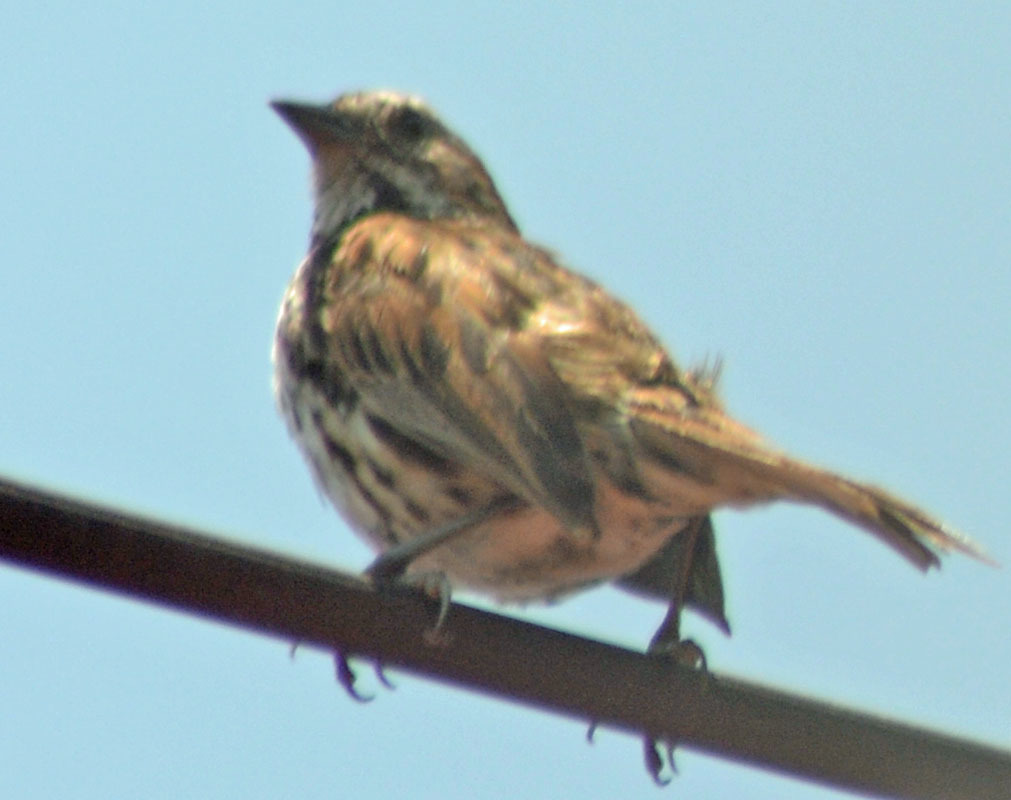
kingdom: Animalia
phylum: Chordata
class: Aves
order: Passeriformes
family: Passerellidae
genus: Melospiza
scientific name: Melospiza melodia
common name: Song sparrow
